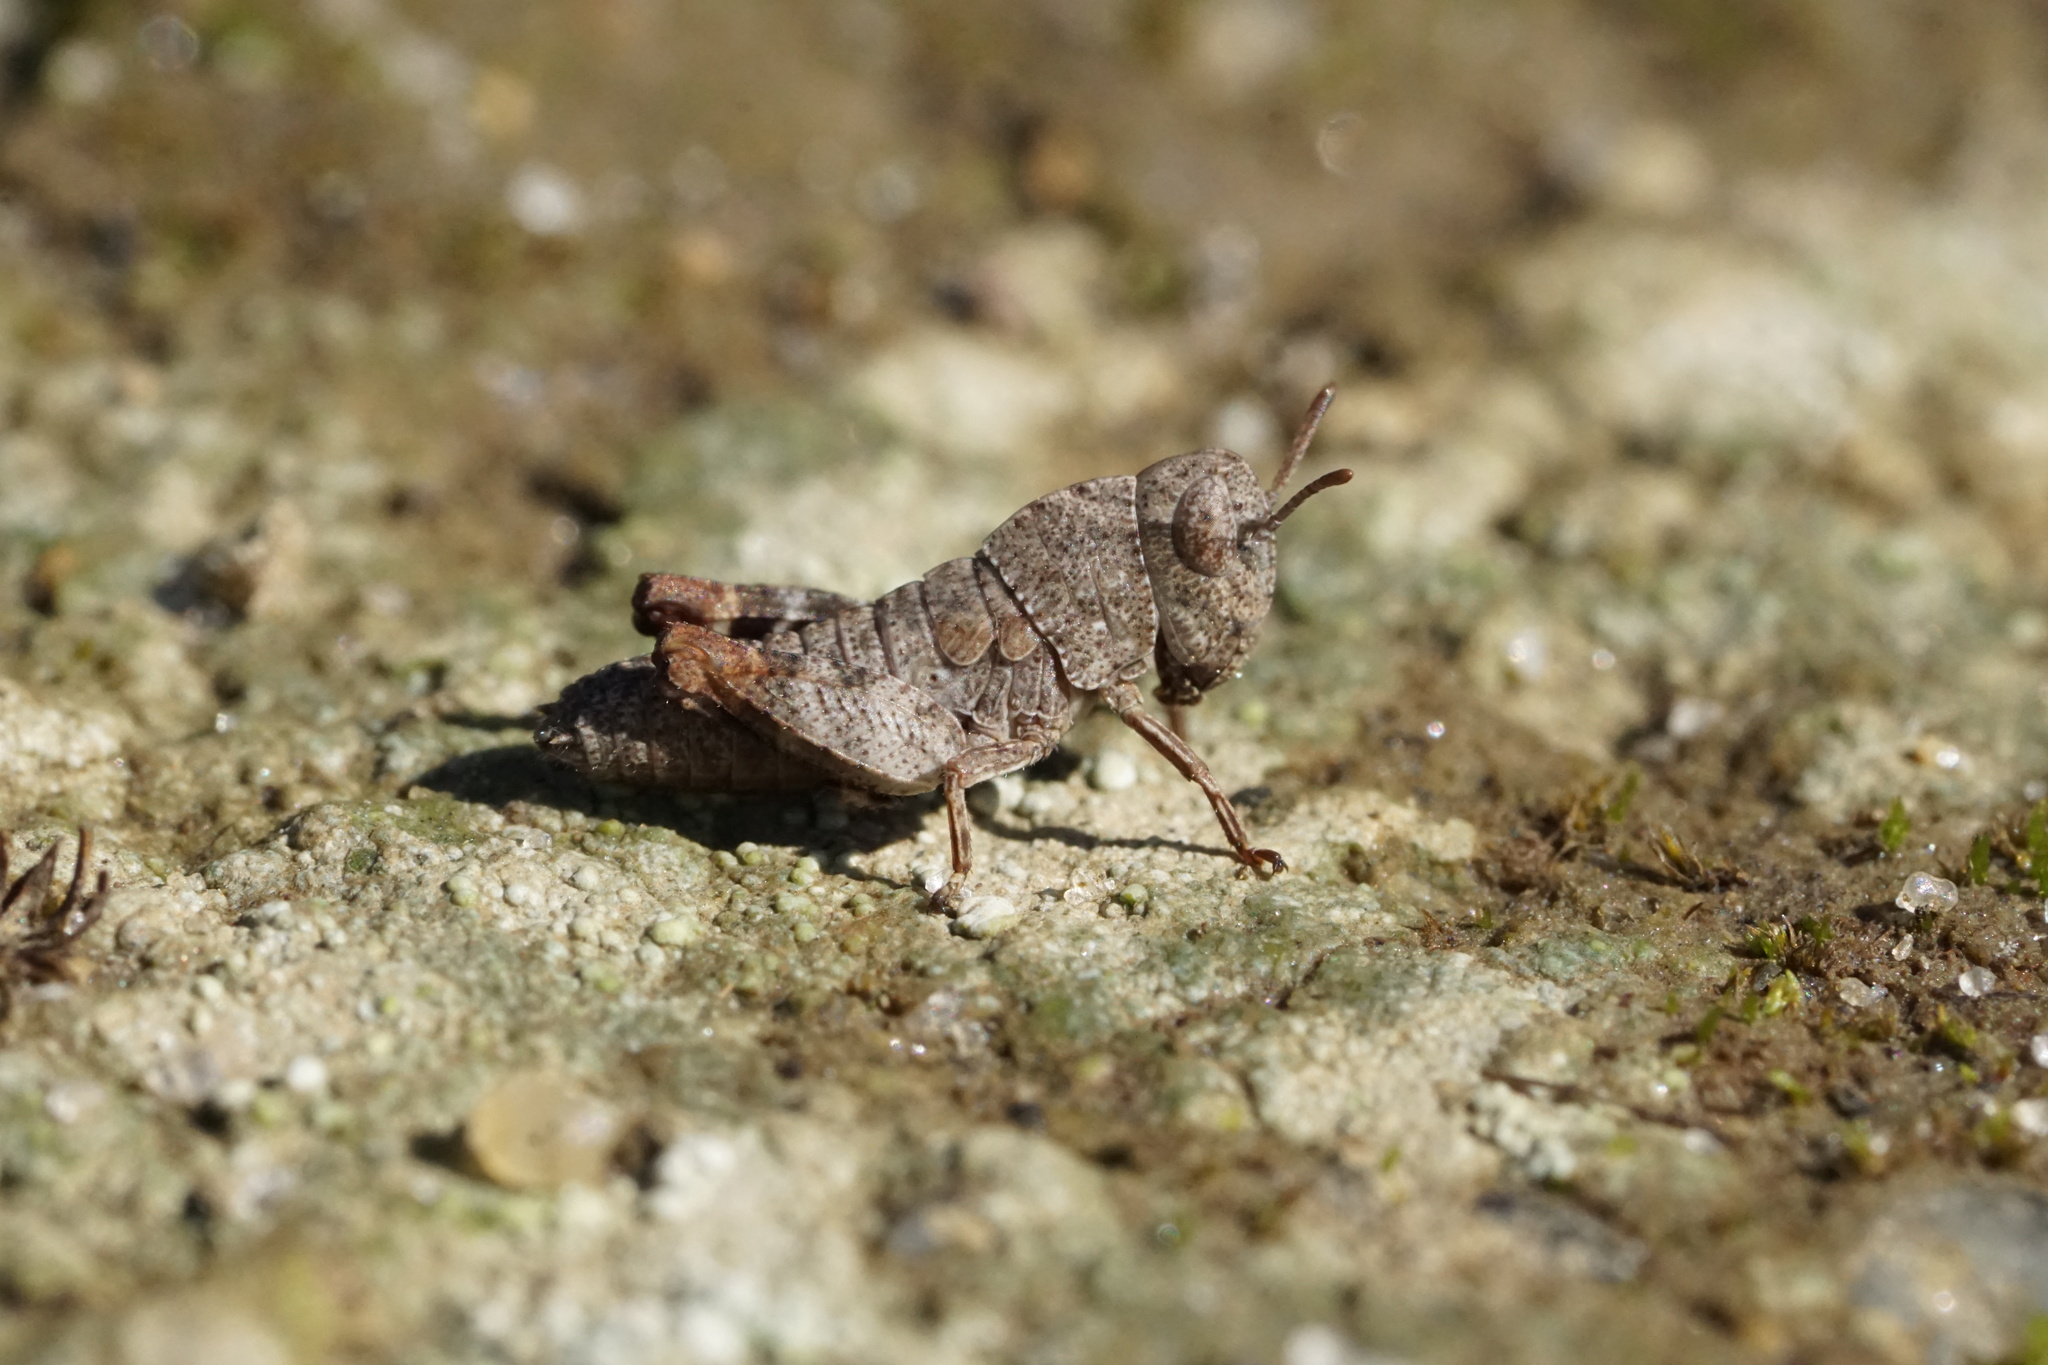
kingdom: Animalia
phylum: Arthropoda
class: Insecta
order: Orthoptera
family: Acrididae
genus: Arphia
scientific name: Arphia sulphurea
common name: Spring yellow-winged locust
